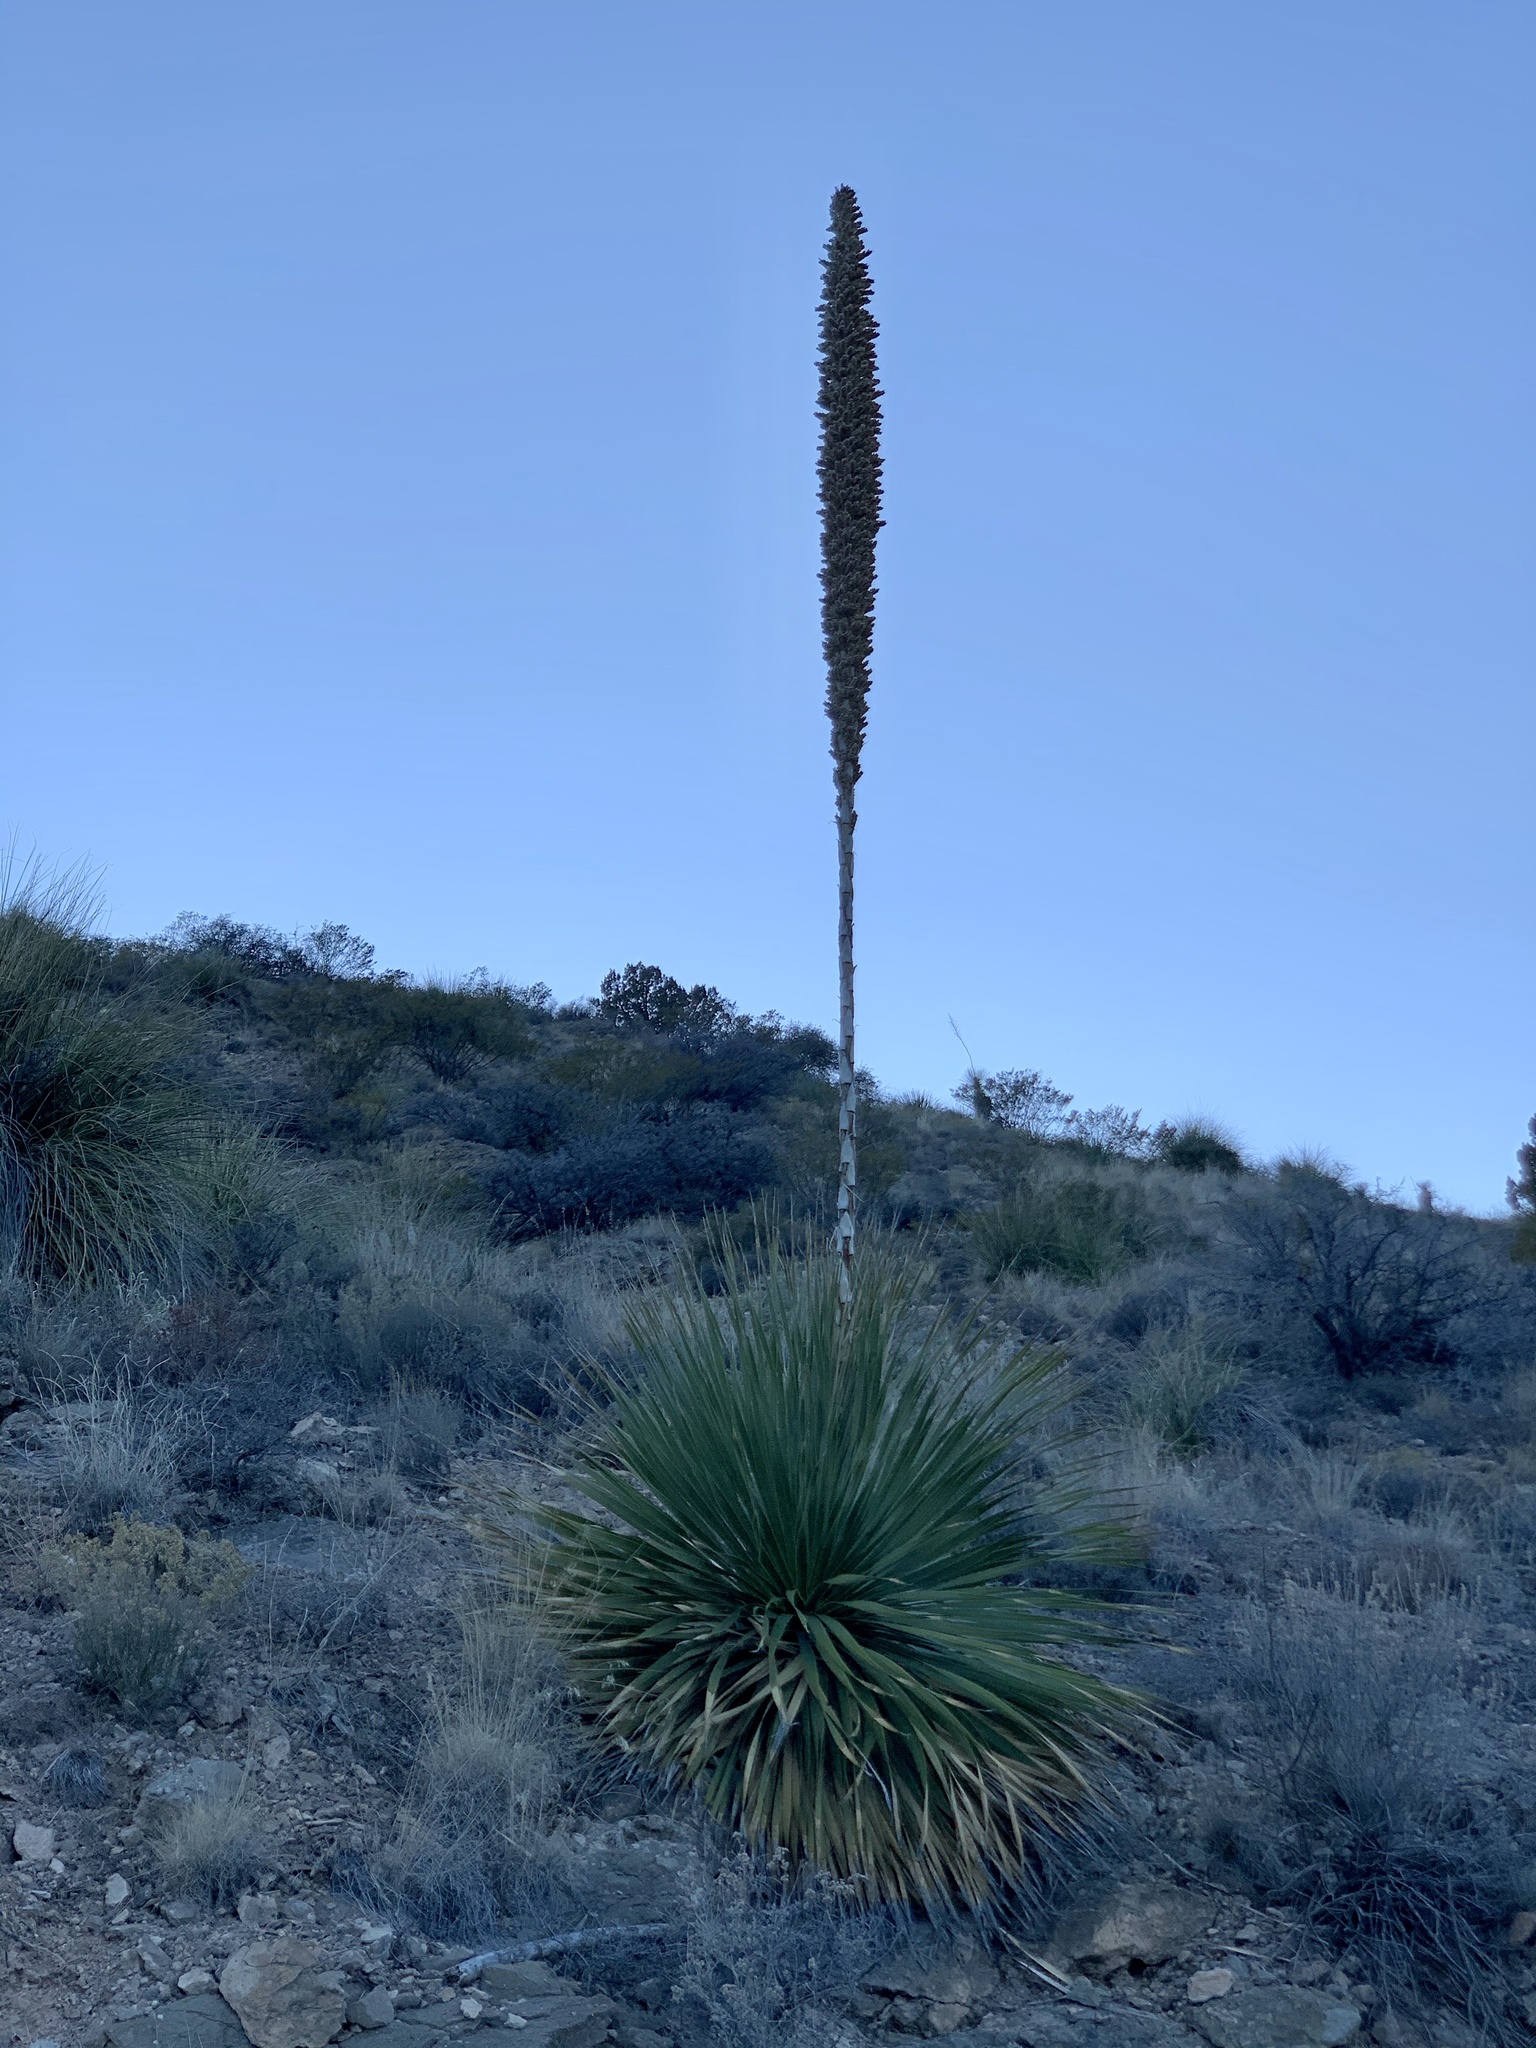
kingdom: Plantae
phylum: Tracheophyta
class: Liliopsida
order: Asparagales
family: Asparagaceae
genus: Dasylirion
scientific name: Dasylirion wheeleri
